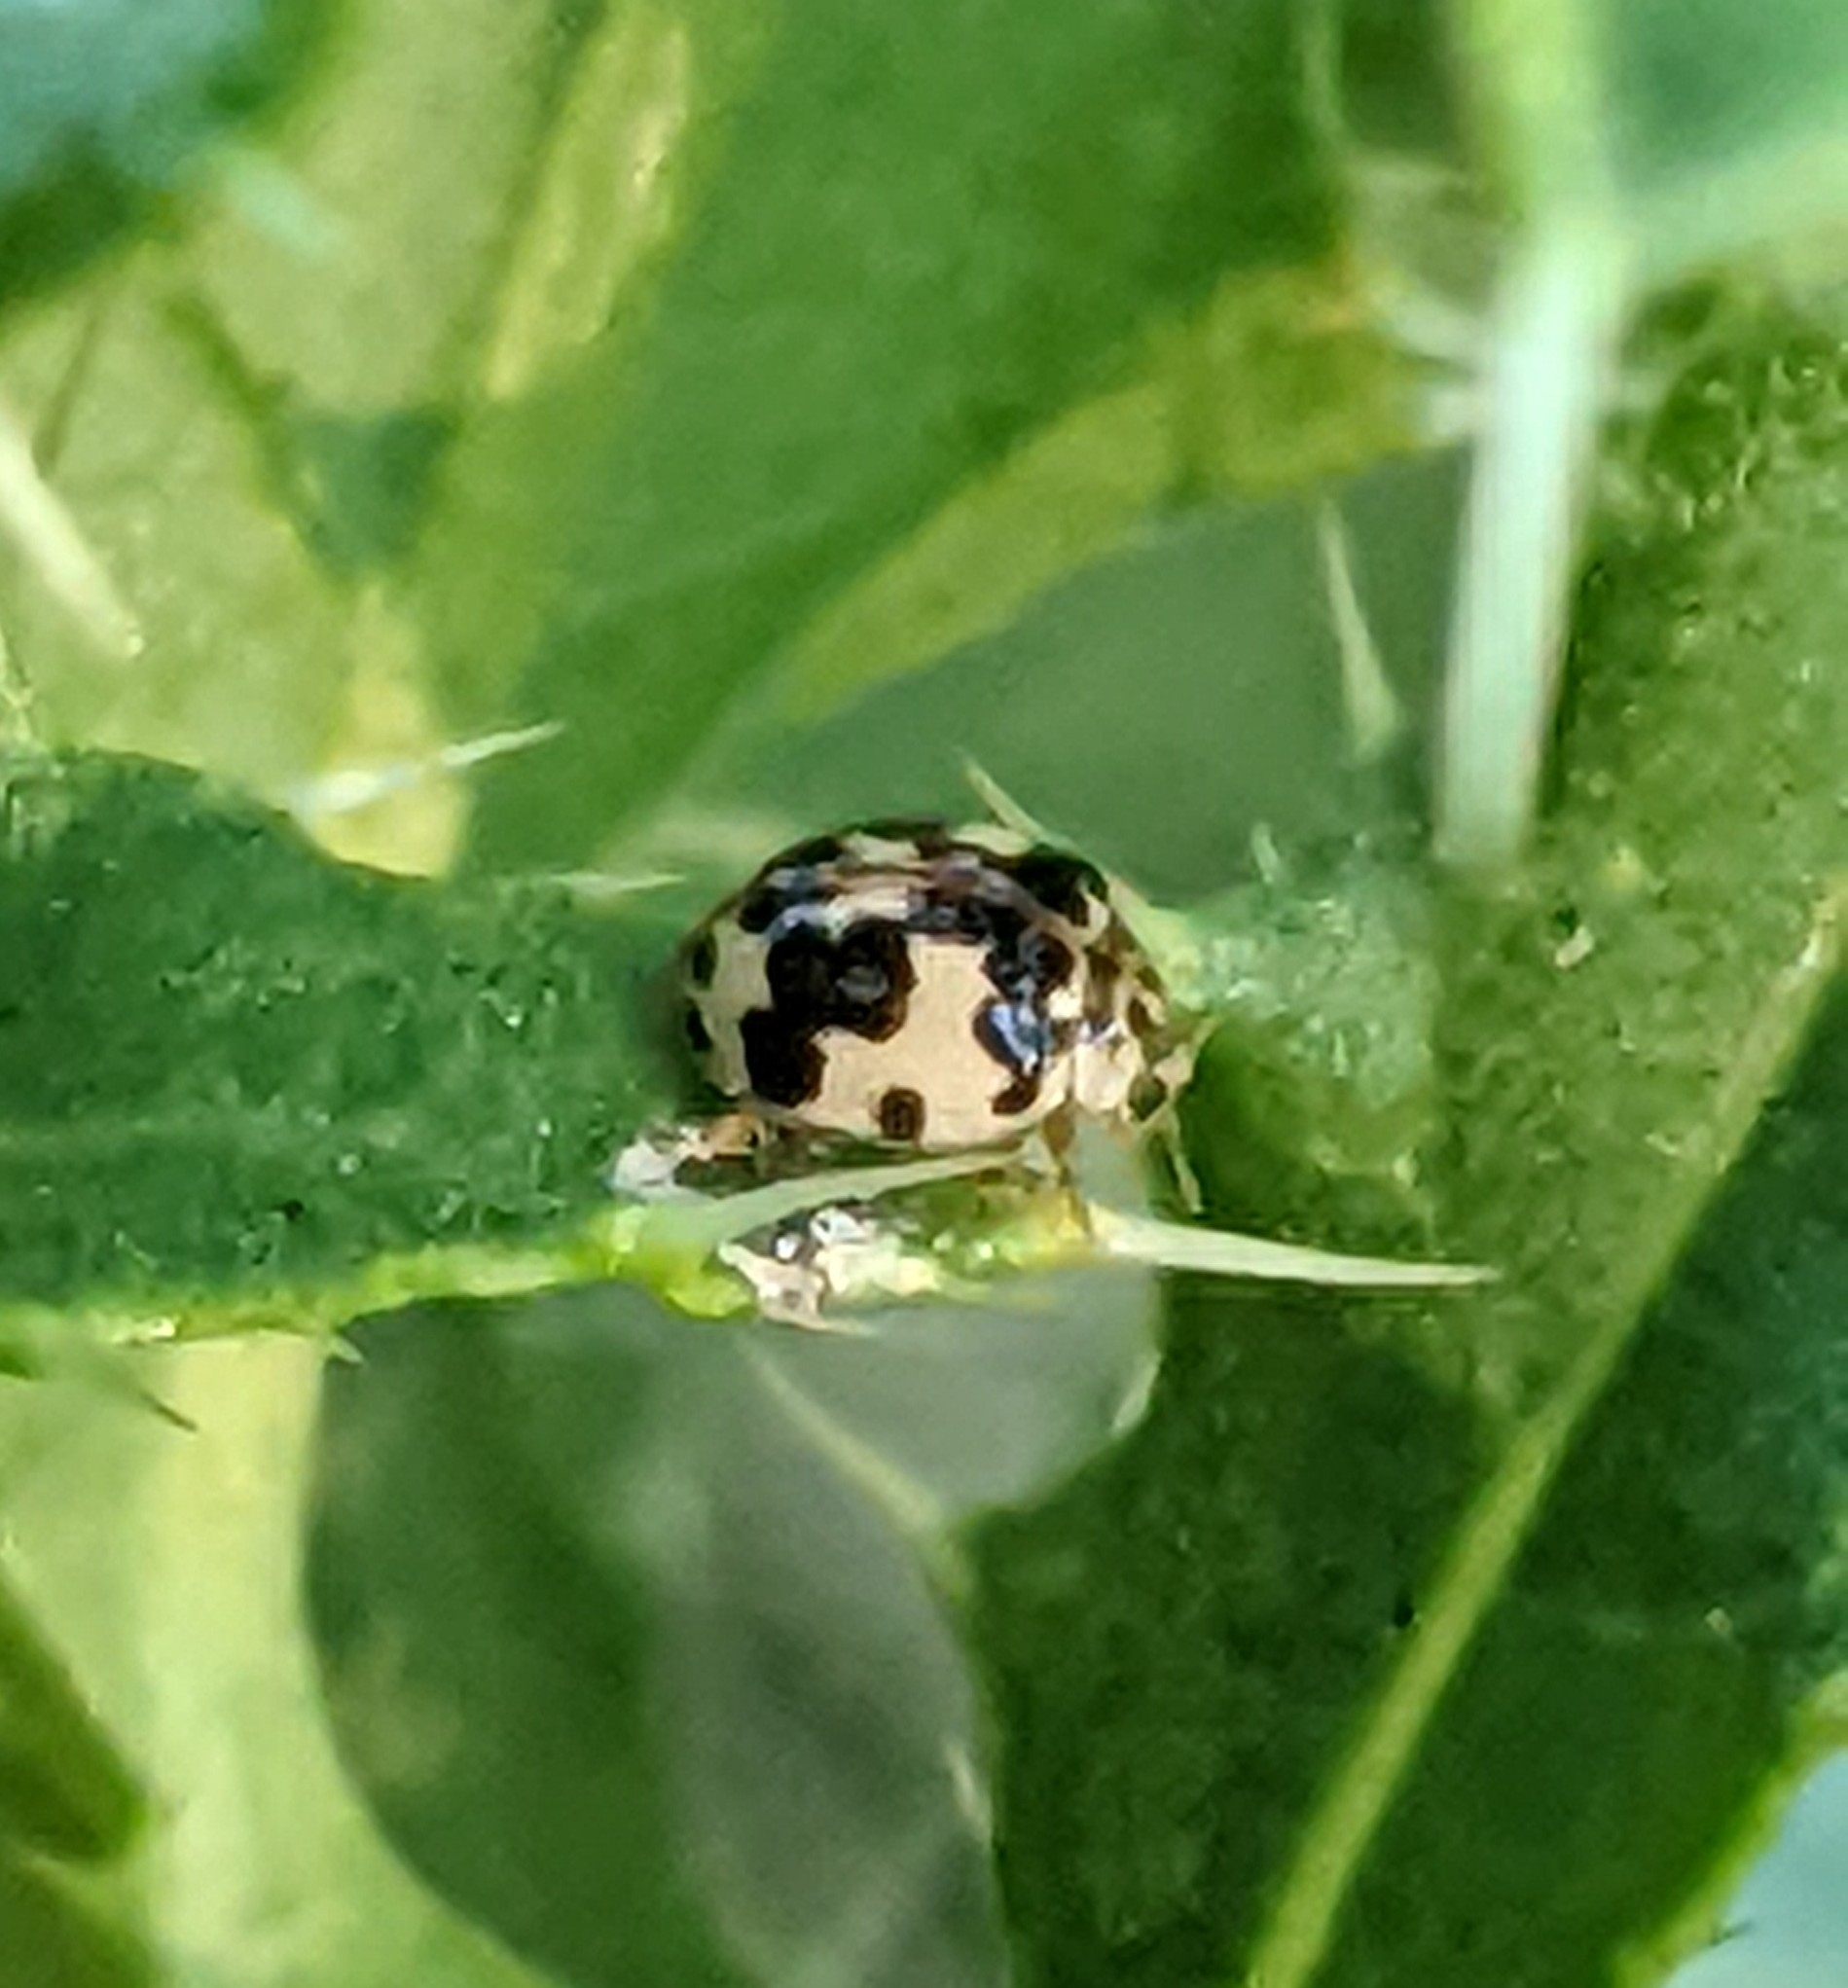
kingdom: Animalia
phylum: Arthropoda
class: Insecta
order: Coleoptera
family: Coccinellidae
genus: Psyllobora
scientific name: Psyllobora borealis
